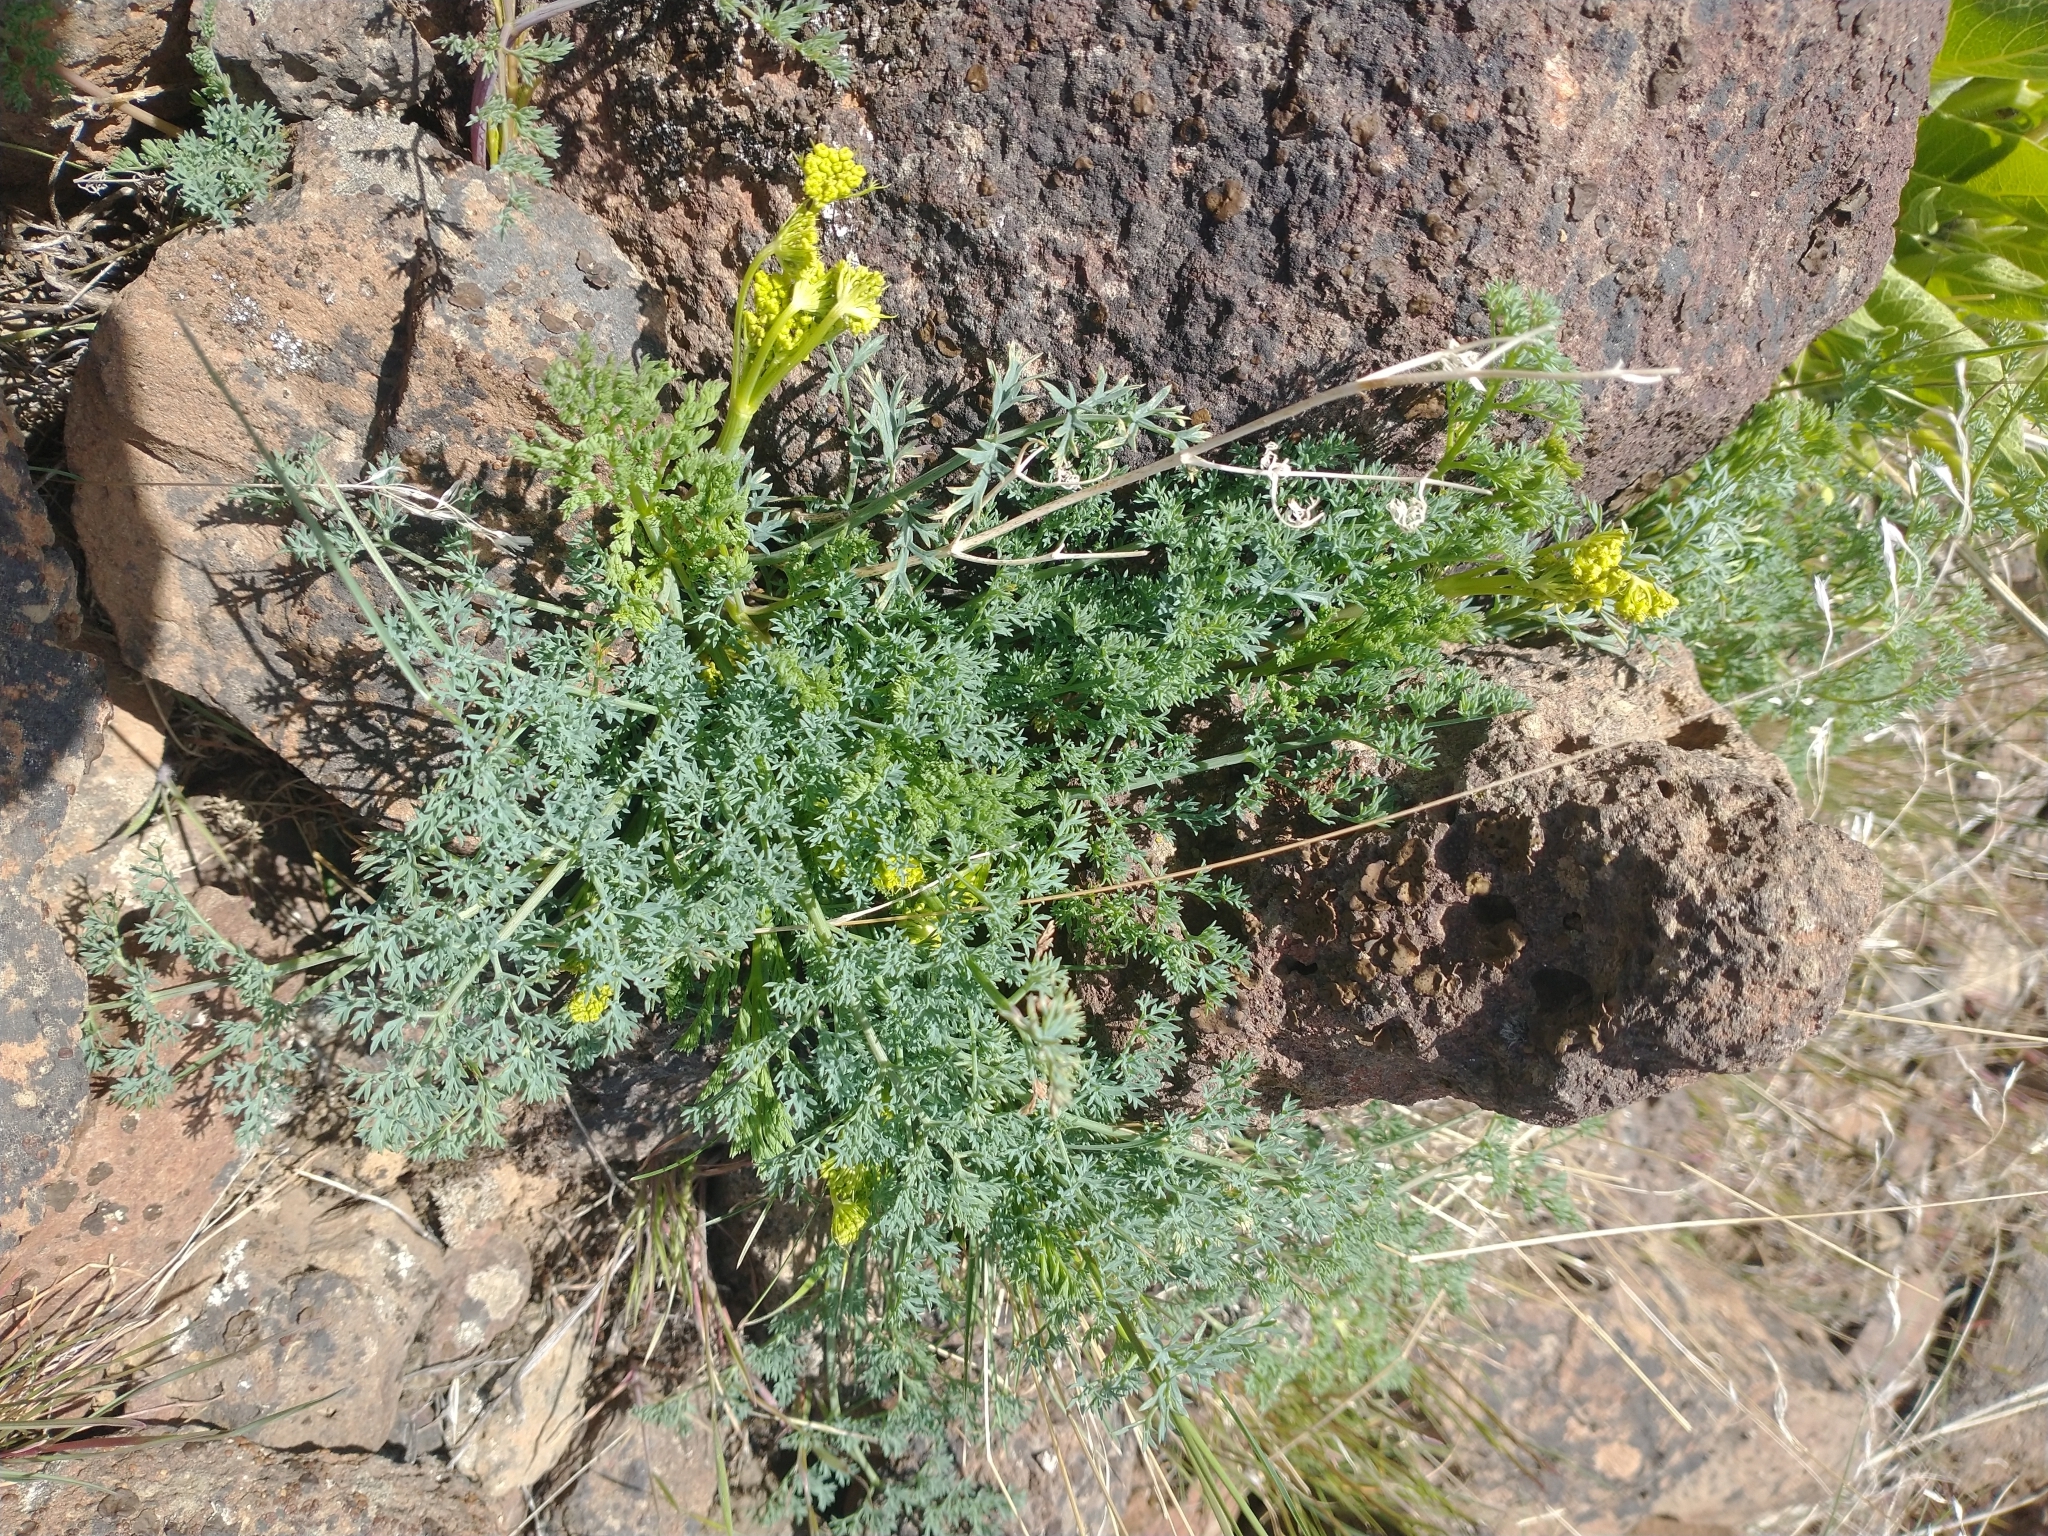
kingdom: Plantae
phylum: Tracheophyta
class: Magnoliopsida
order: Apiales
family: Apiaceae
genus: Lomatium
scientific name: Lomatium papilioniferum
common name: Butterfly lomatium
